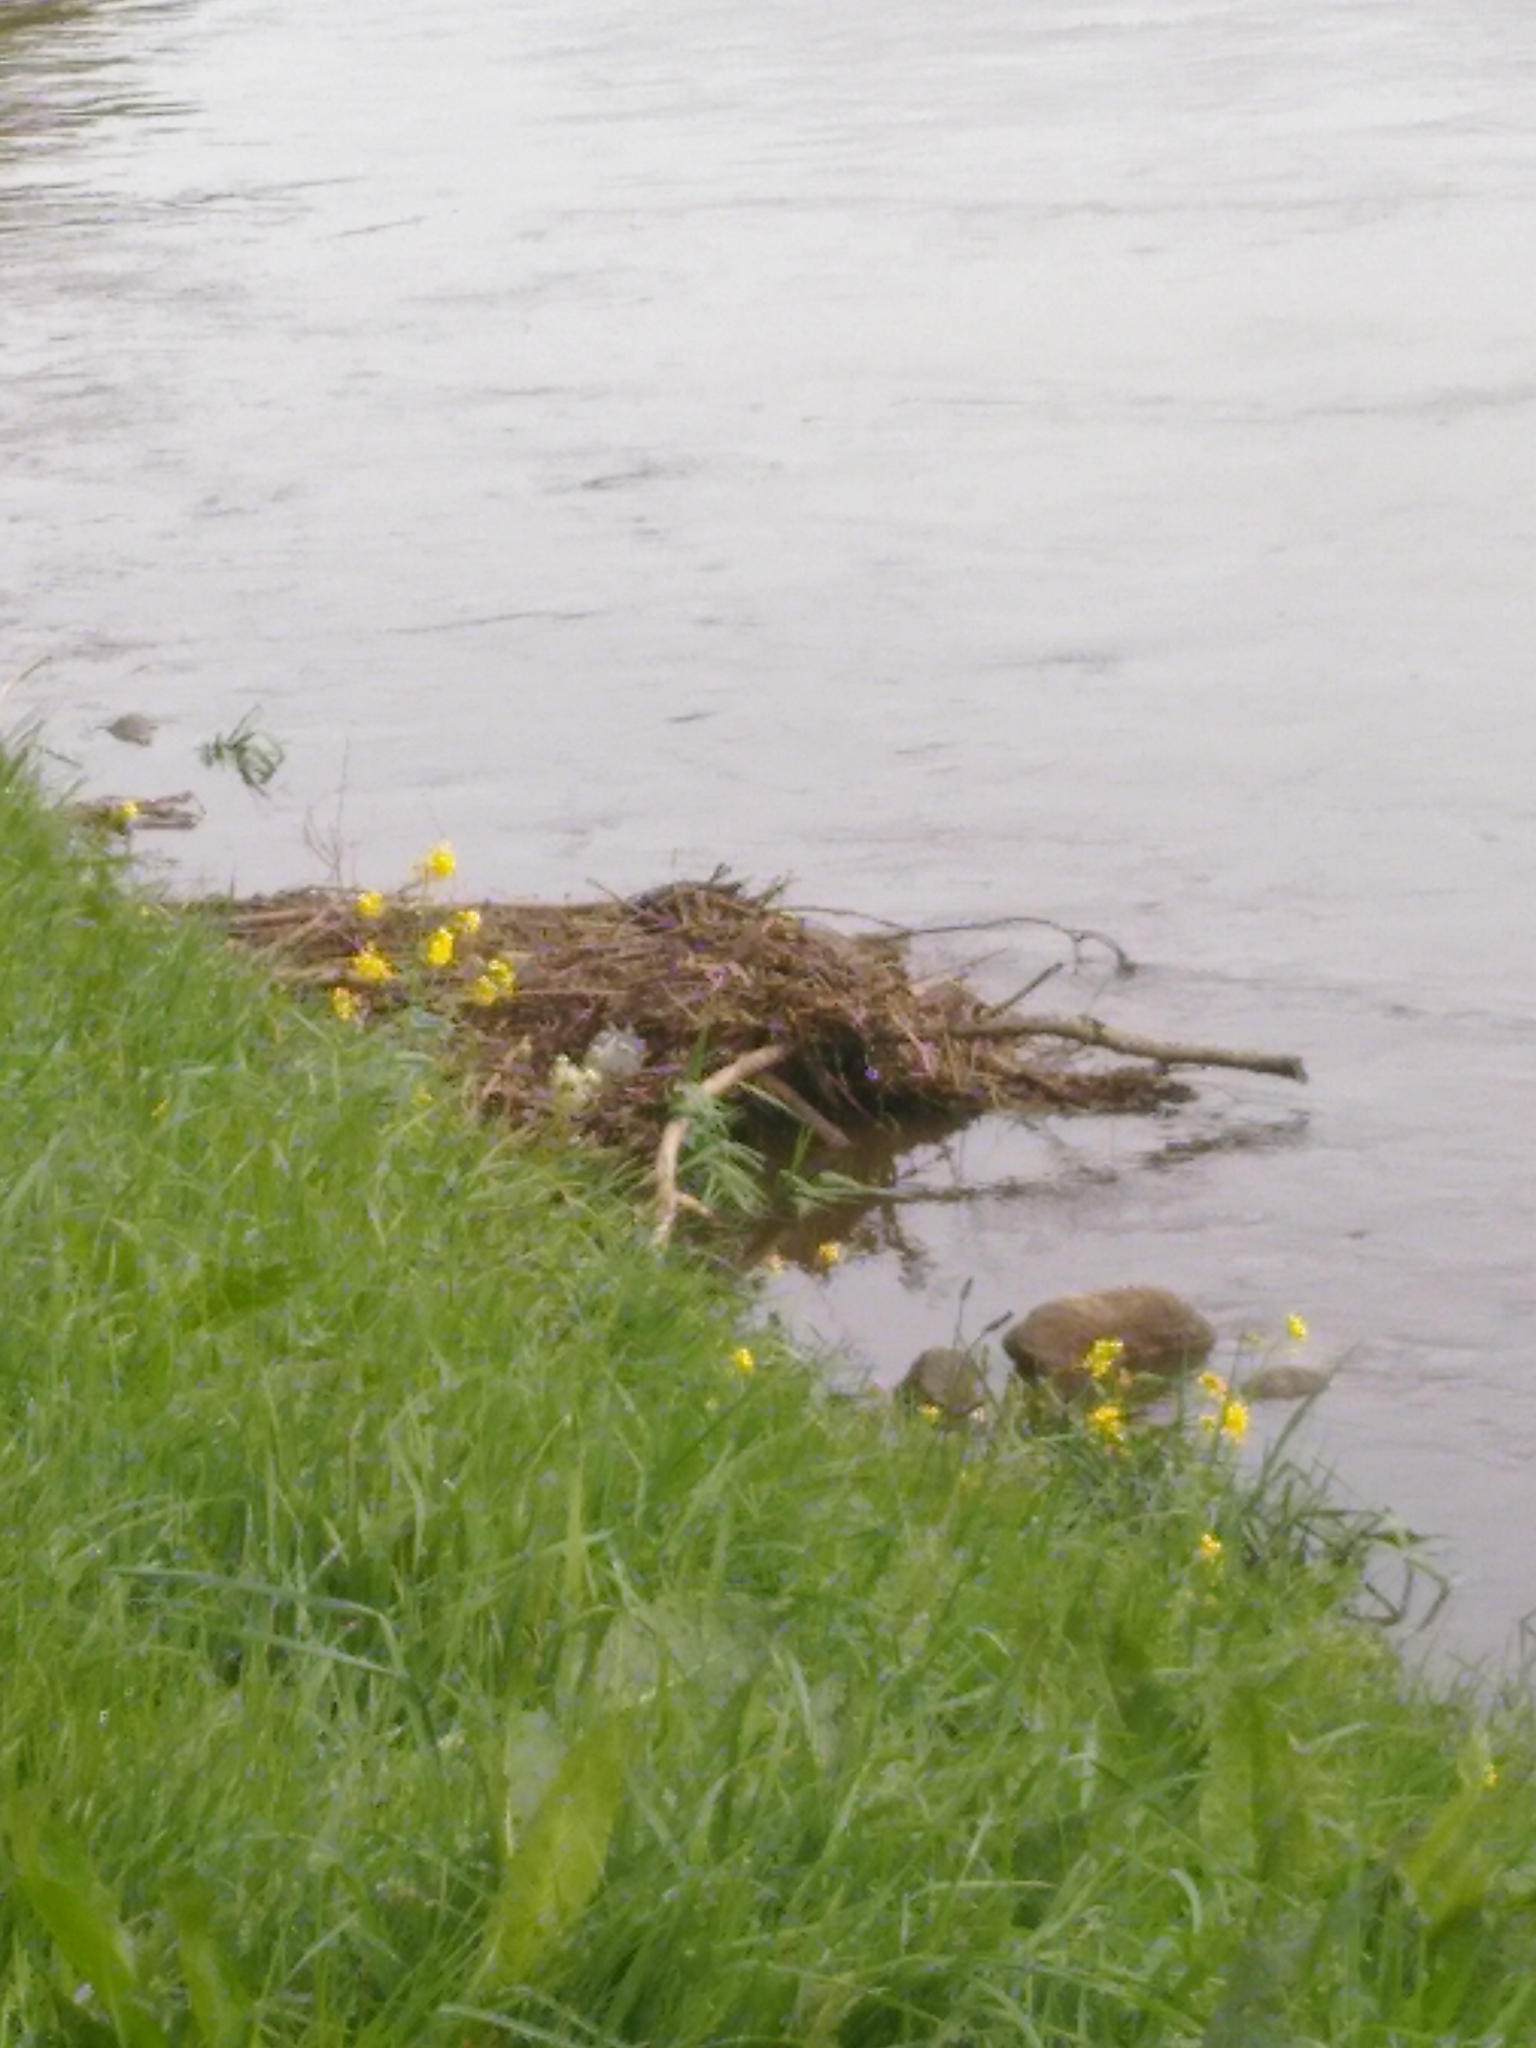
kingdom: Animalia
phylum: Chordata
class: Aves
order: Passeriformes
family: Motacillidae
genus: Motacilla
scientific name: Motacilla cinerea
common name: Grey wagtail
